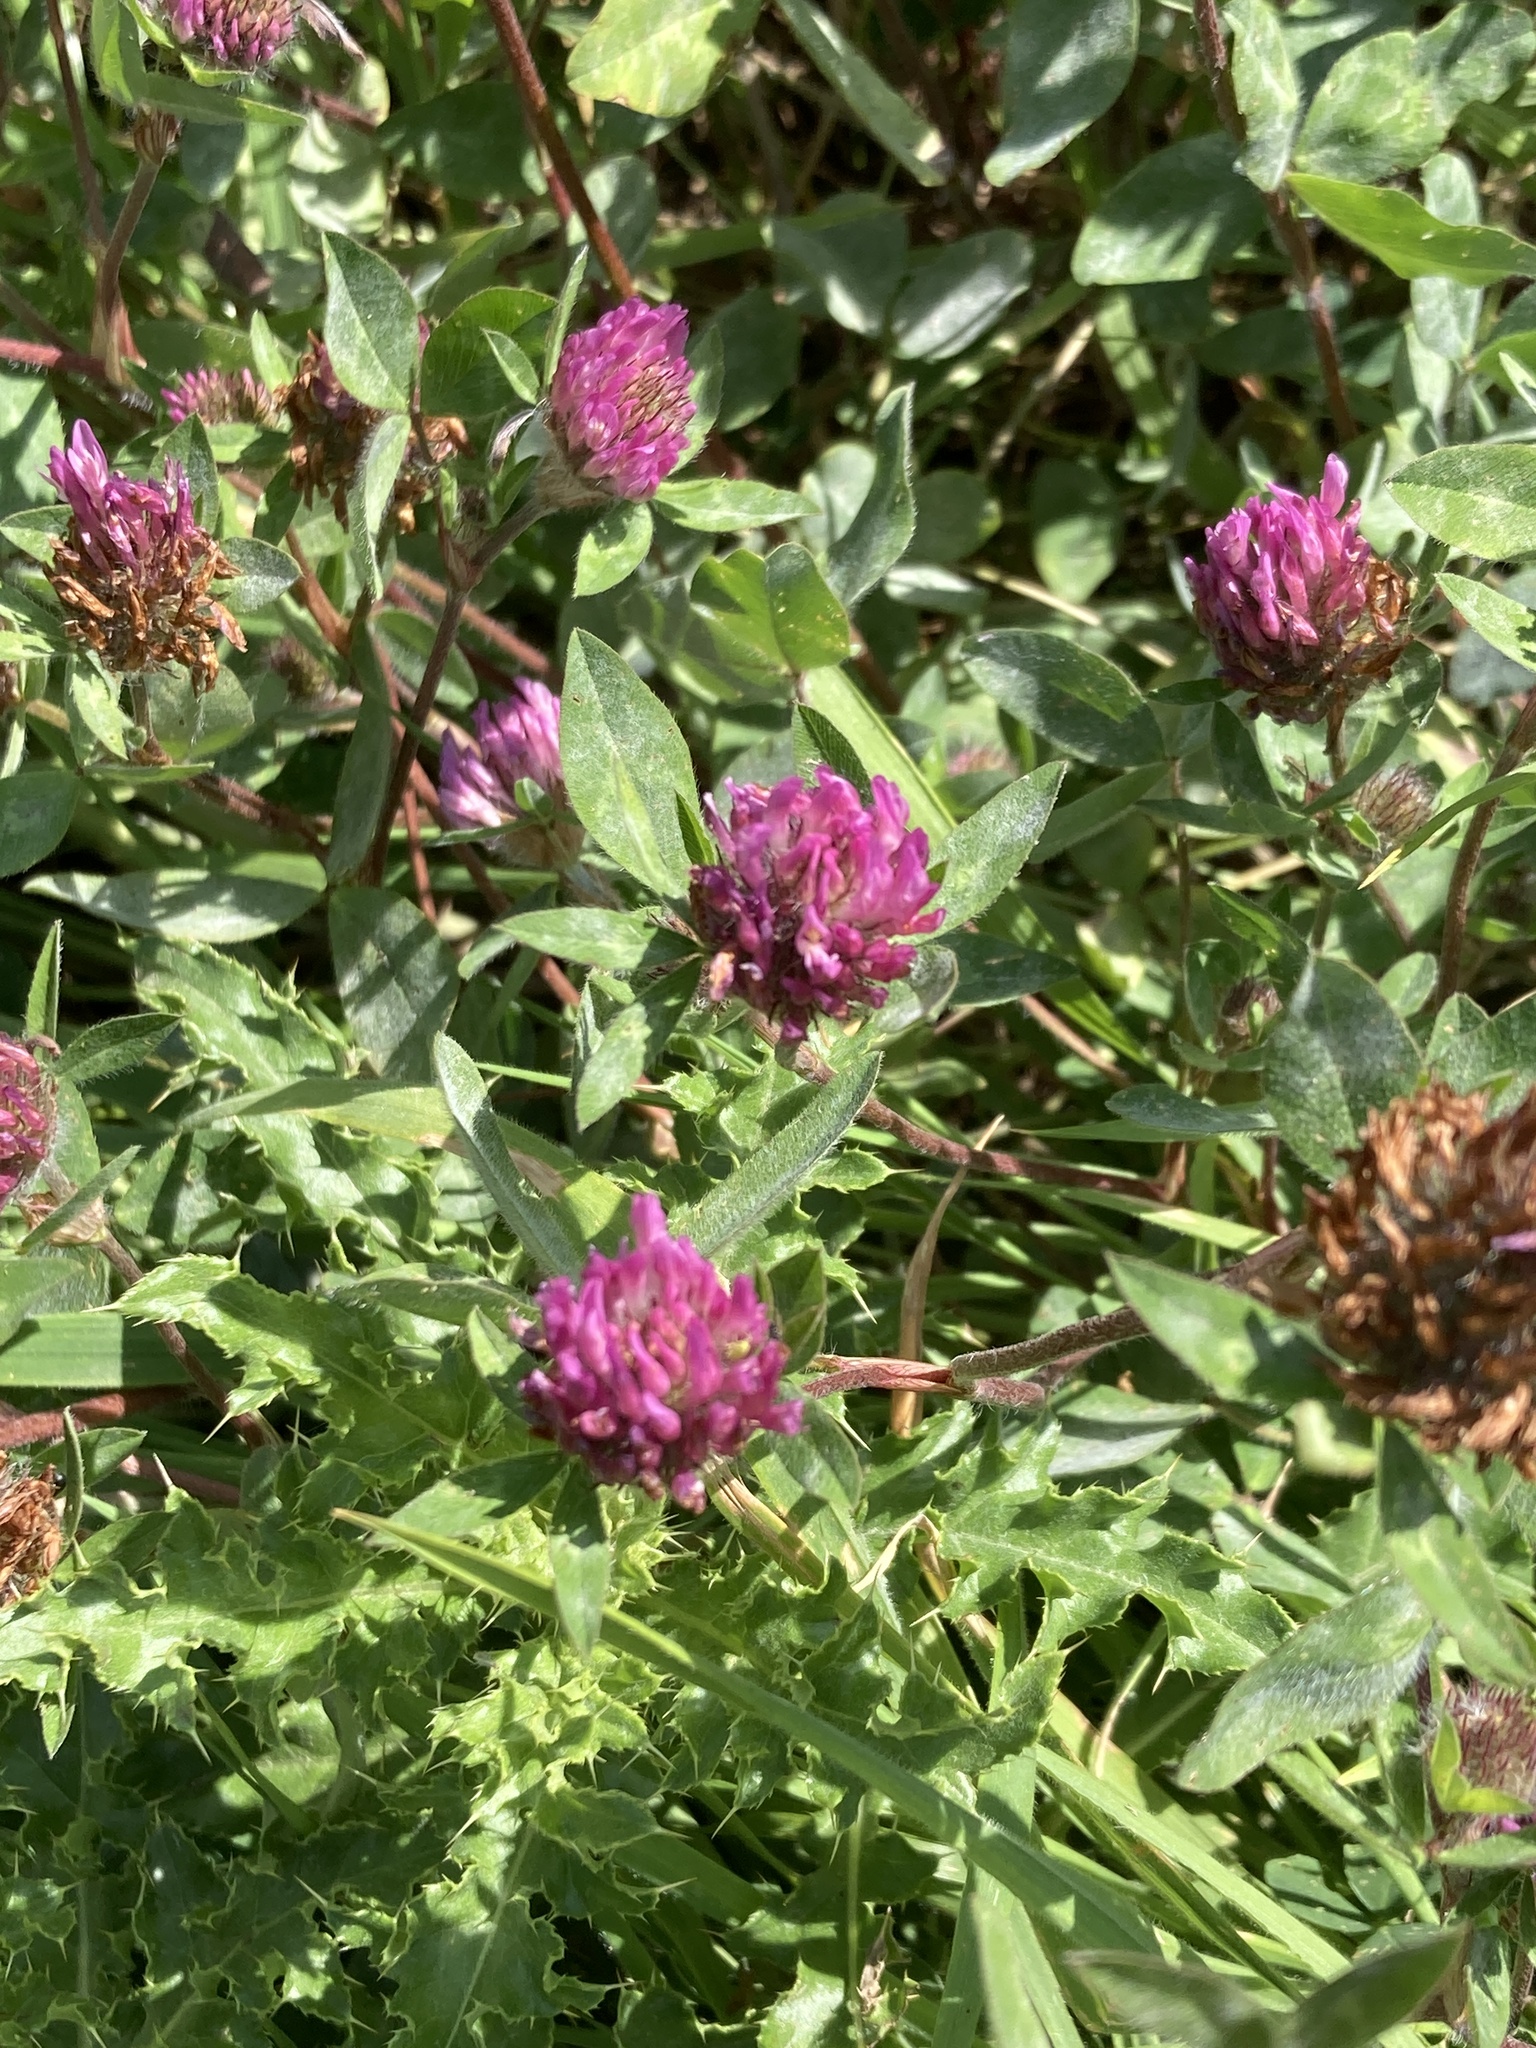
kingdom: Plantae
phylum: Tracheophyta
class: Magnoliopsida
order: Fabales
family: Fabaceae
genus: Trifolium
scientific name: Trifolium pratense
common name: Red clover
